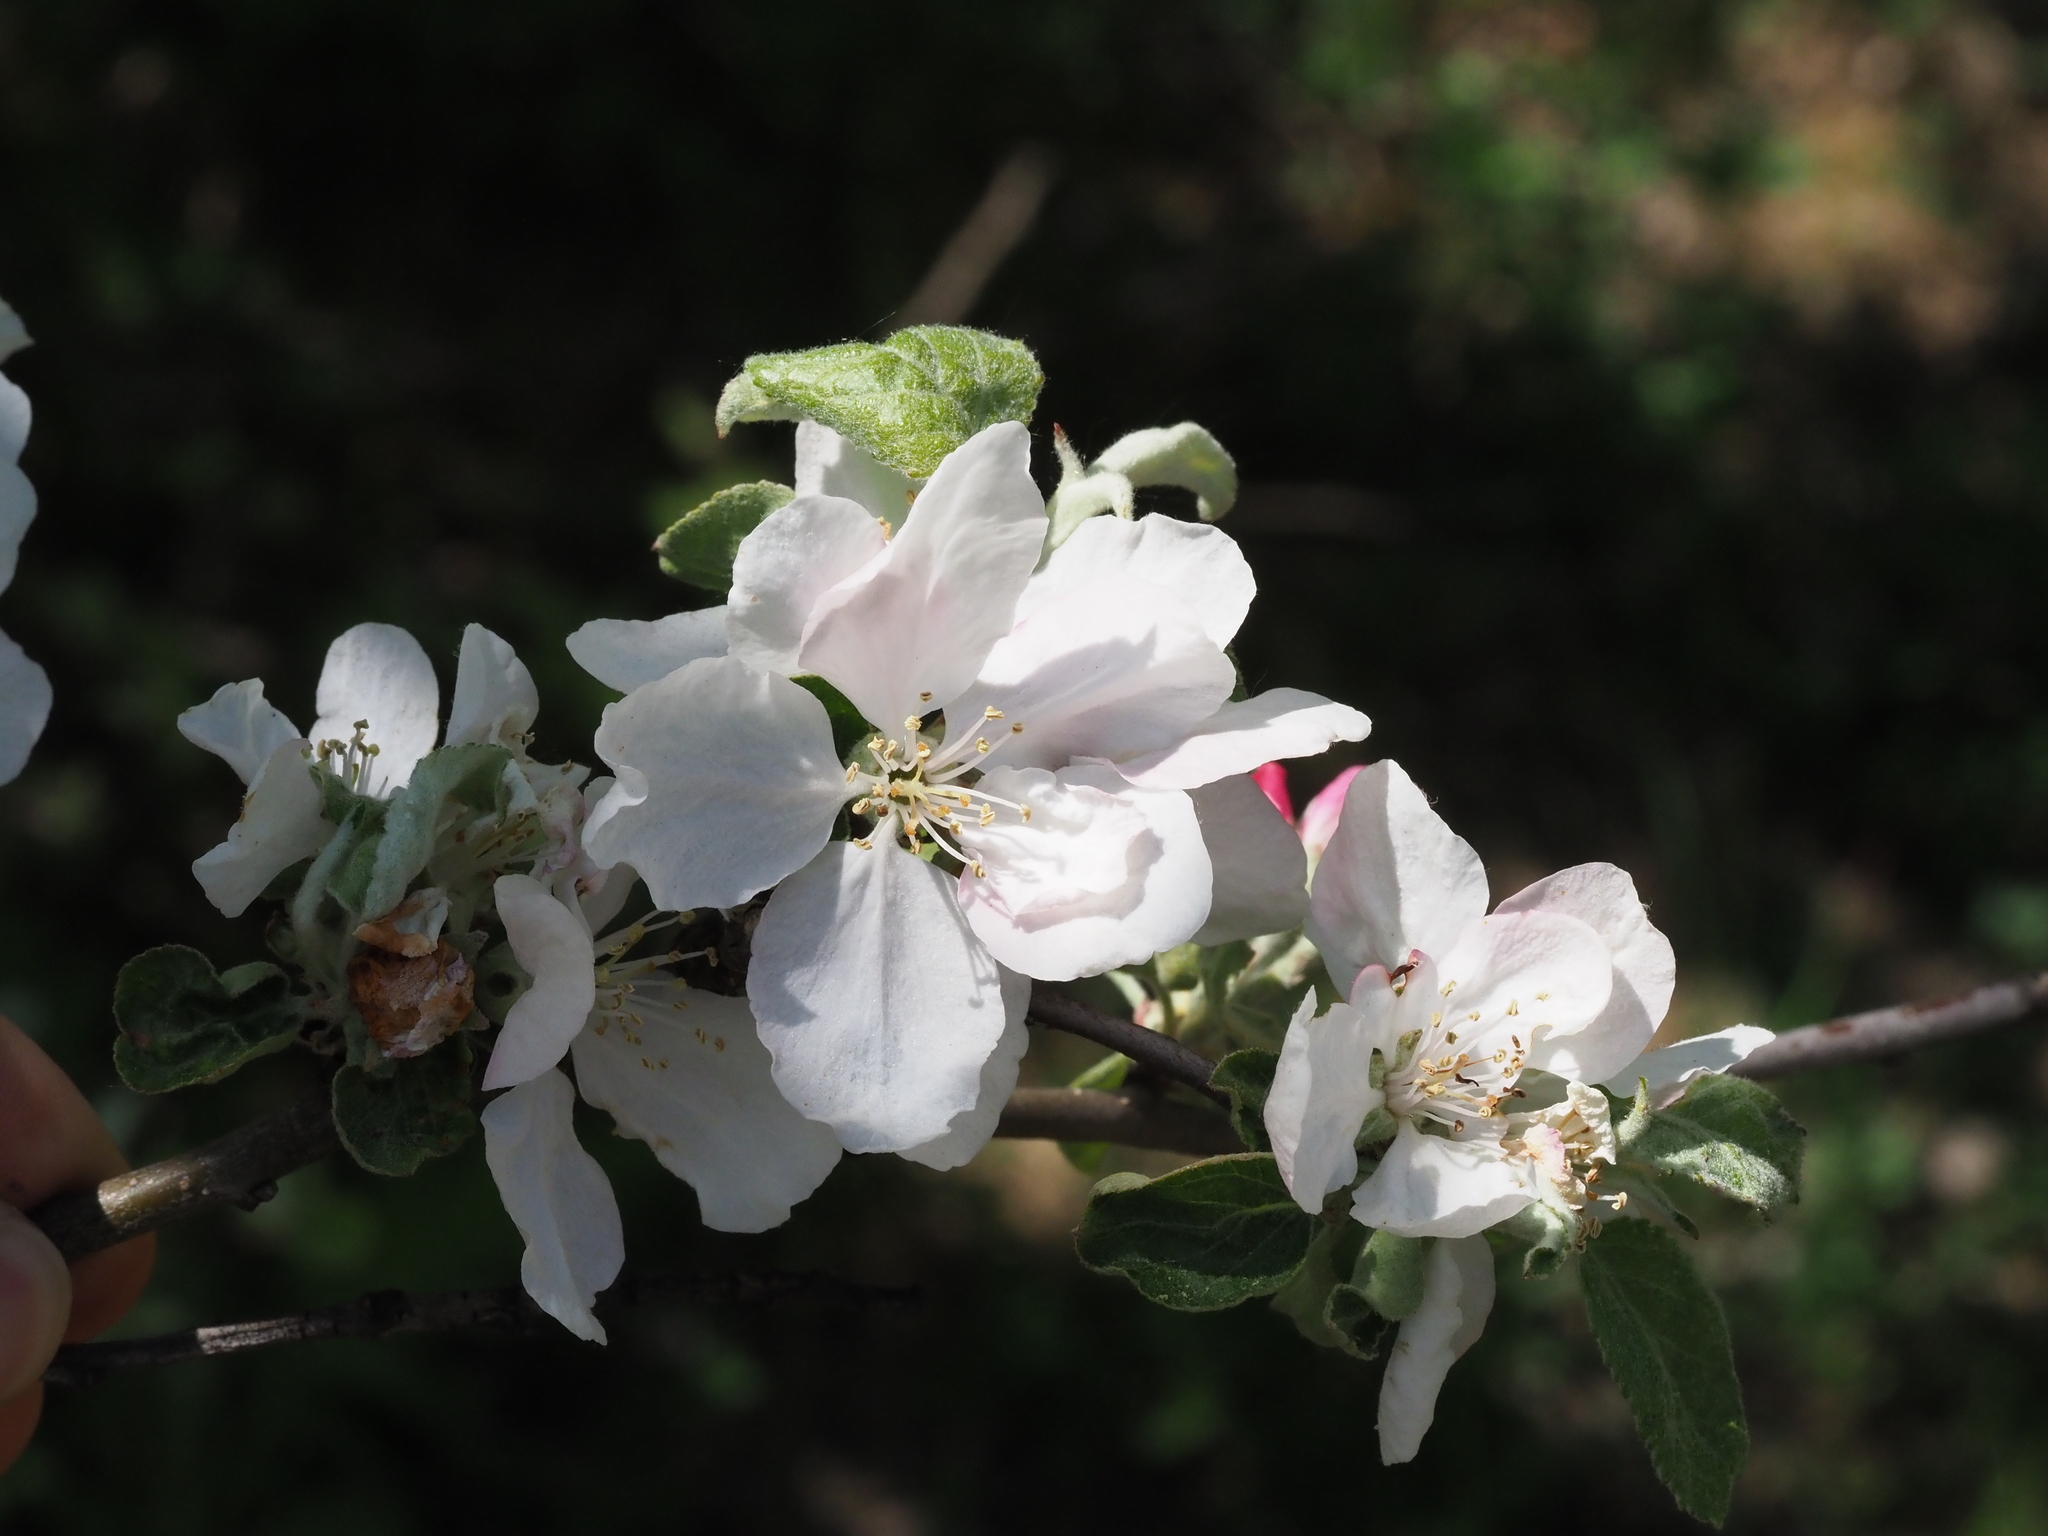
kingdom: Plantae
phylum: Tracheophyta
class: Magnoliopsida
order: Rosales
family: Rosaceae
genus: Malus
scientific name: Malus domestica
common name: Apple
